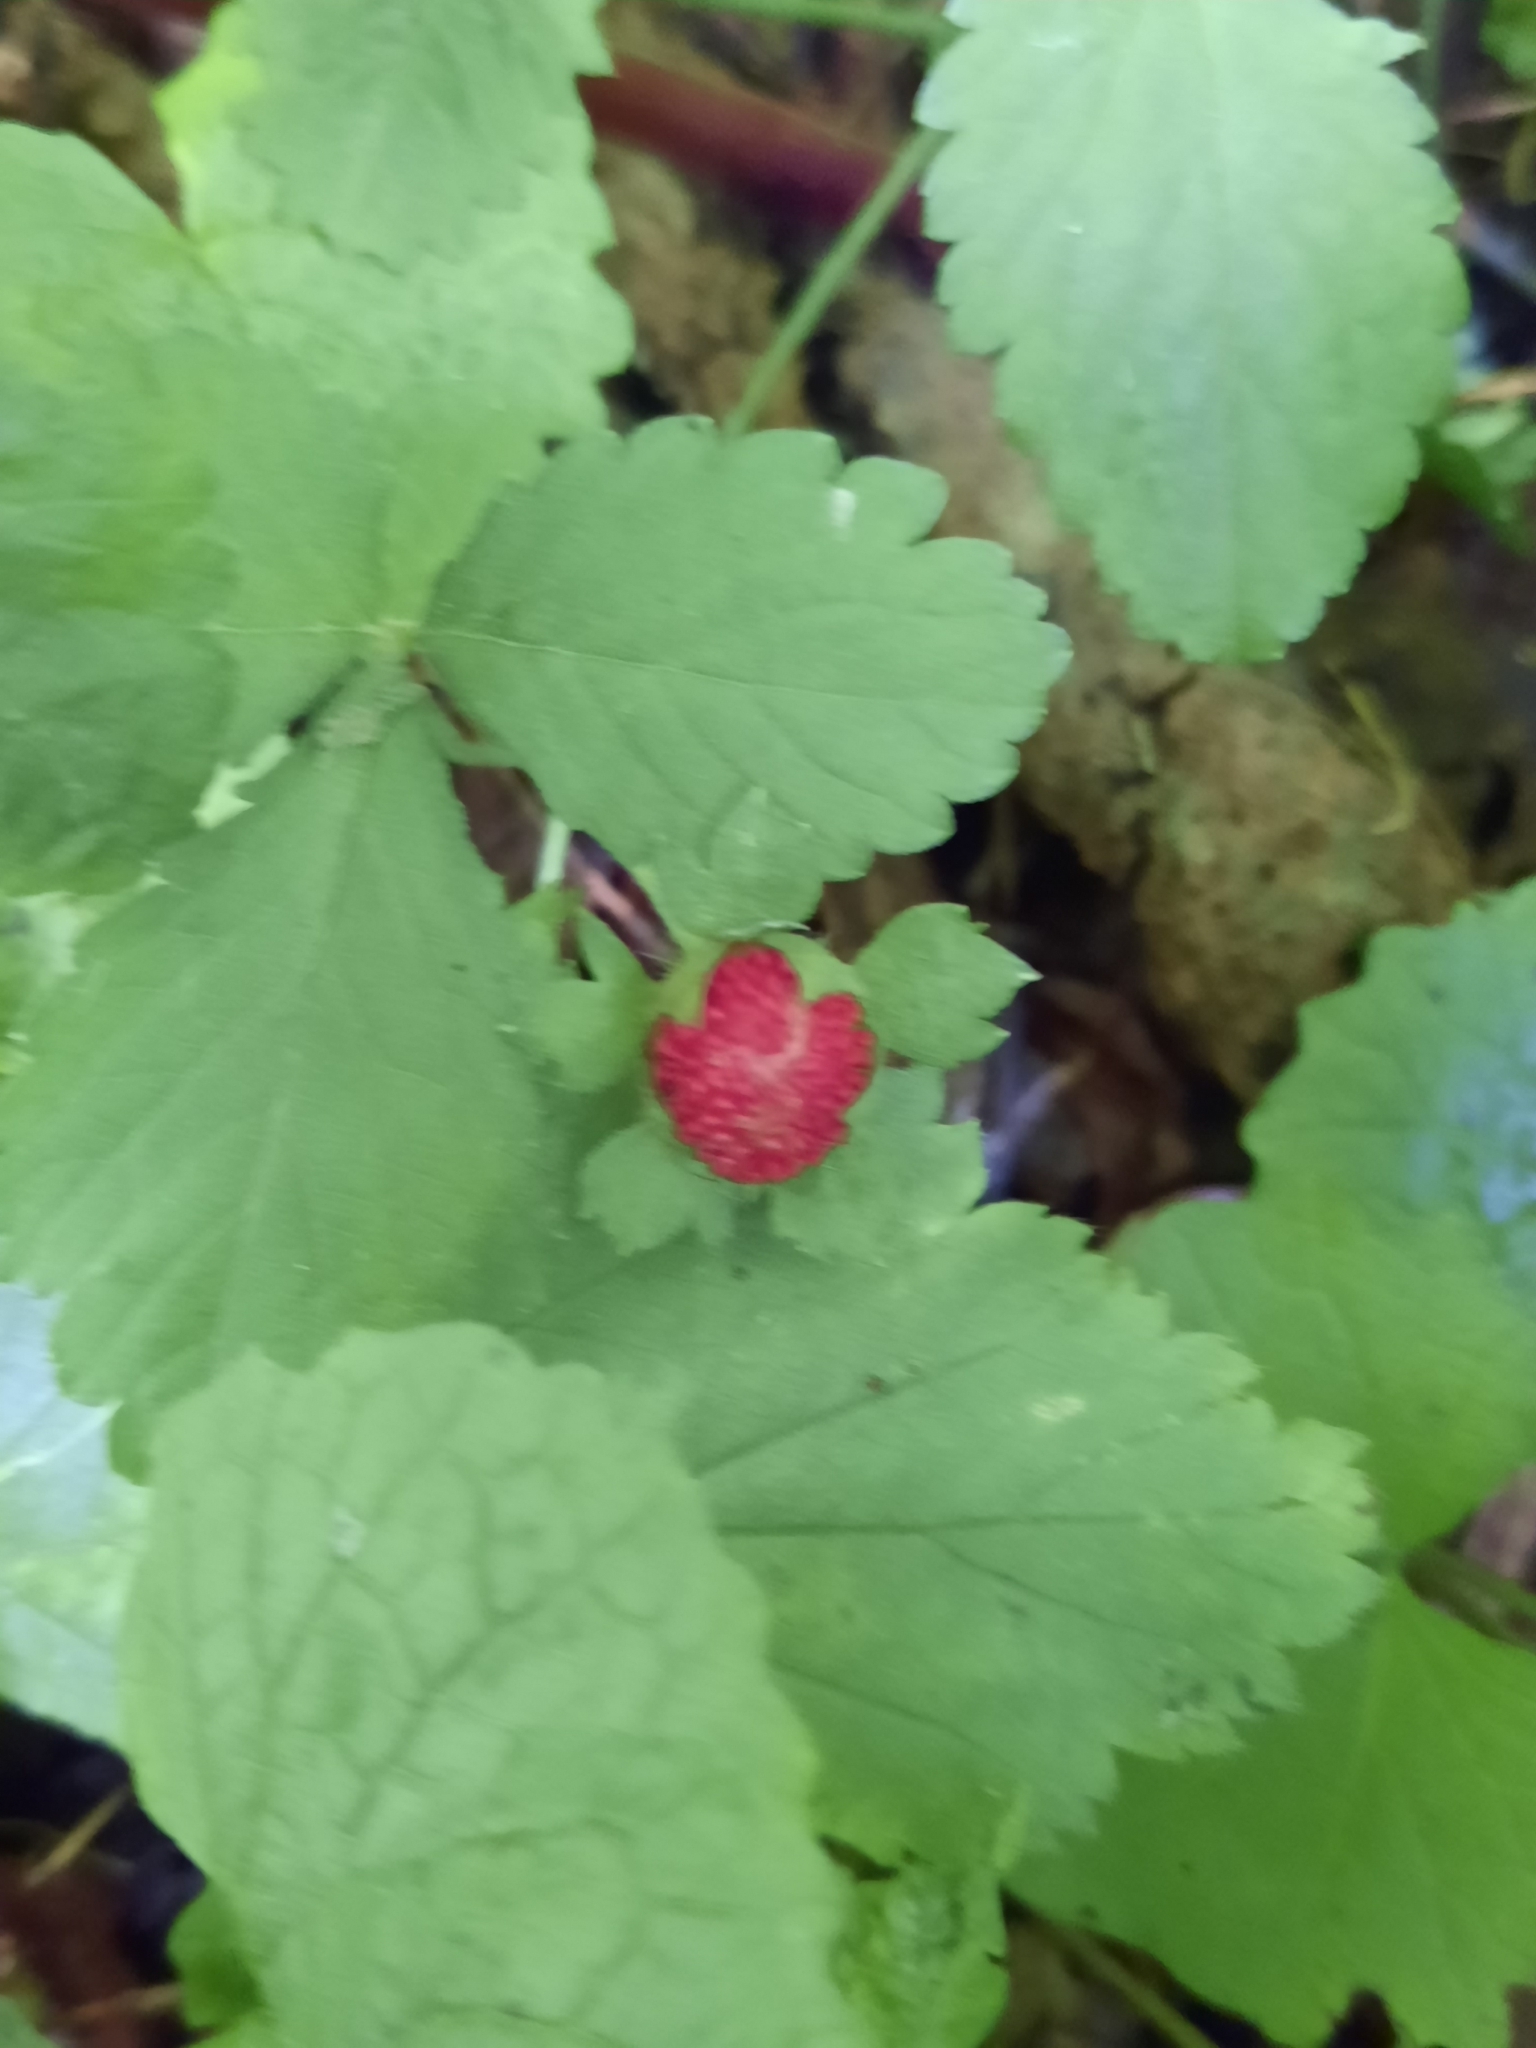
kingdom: Plantae
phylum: Tracheophyta
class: Magnoliopsida
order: Rosales
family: Rosaceae
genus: Potentilla
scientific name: Potentilla indica
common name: Yellow-flowered strawberry
